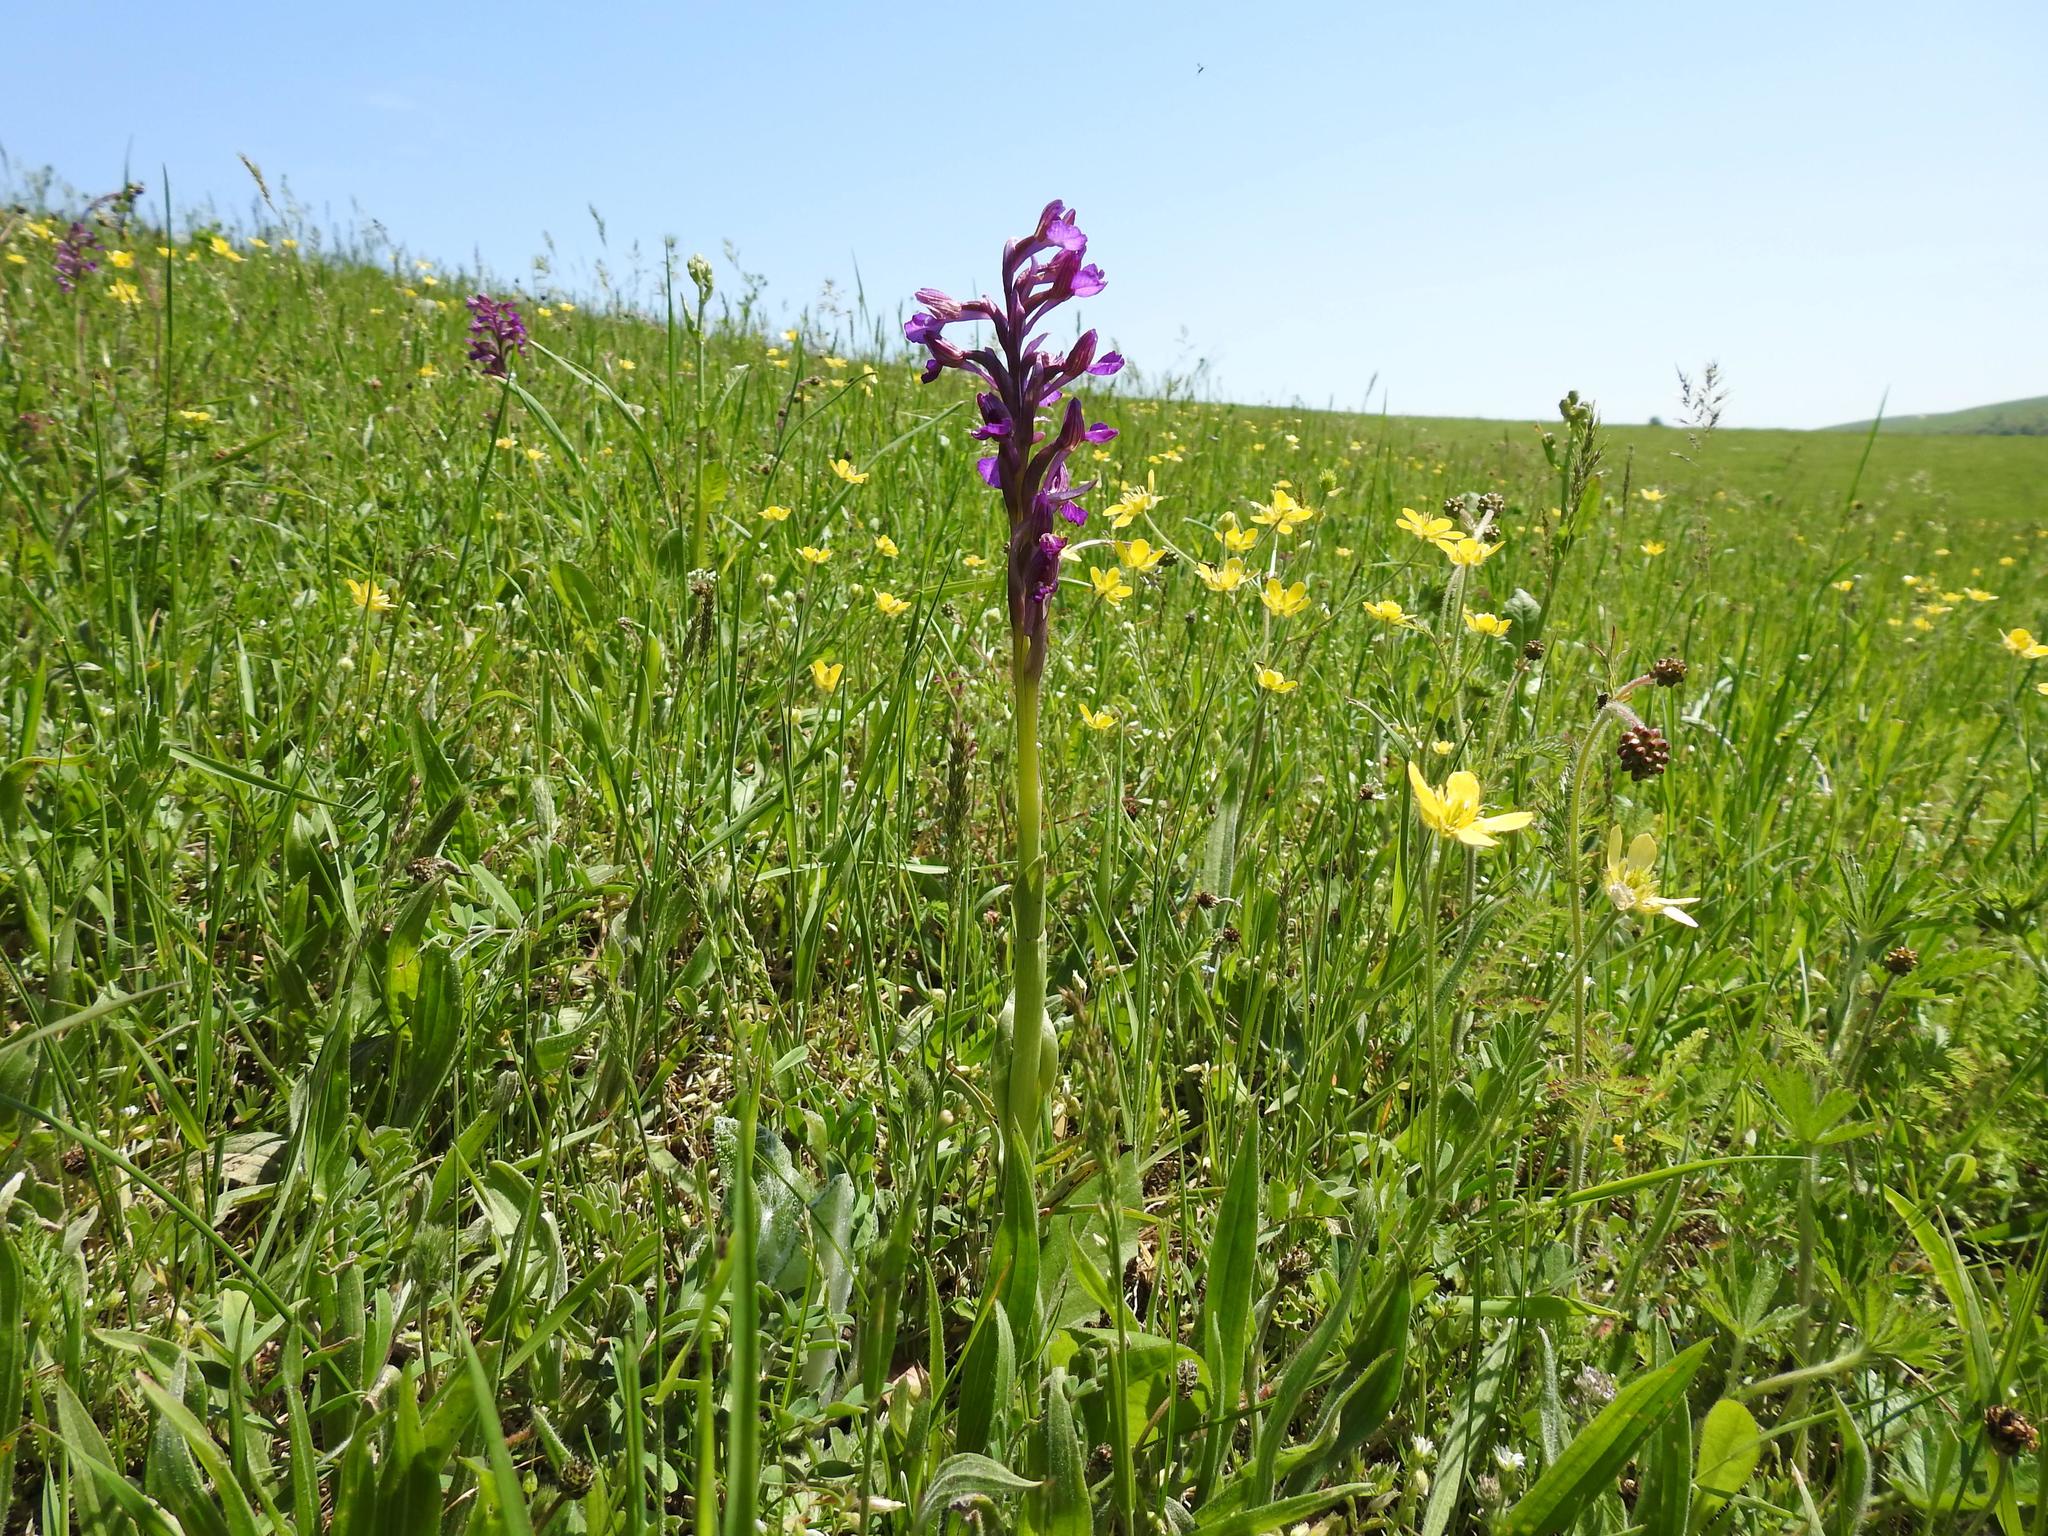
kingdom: Plantae
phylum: Tracheophyta
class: Liliopsida
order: Asparagales
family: Orchidaceae
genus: Anacamptis
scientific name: Anacamptis papilionacea
